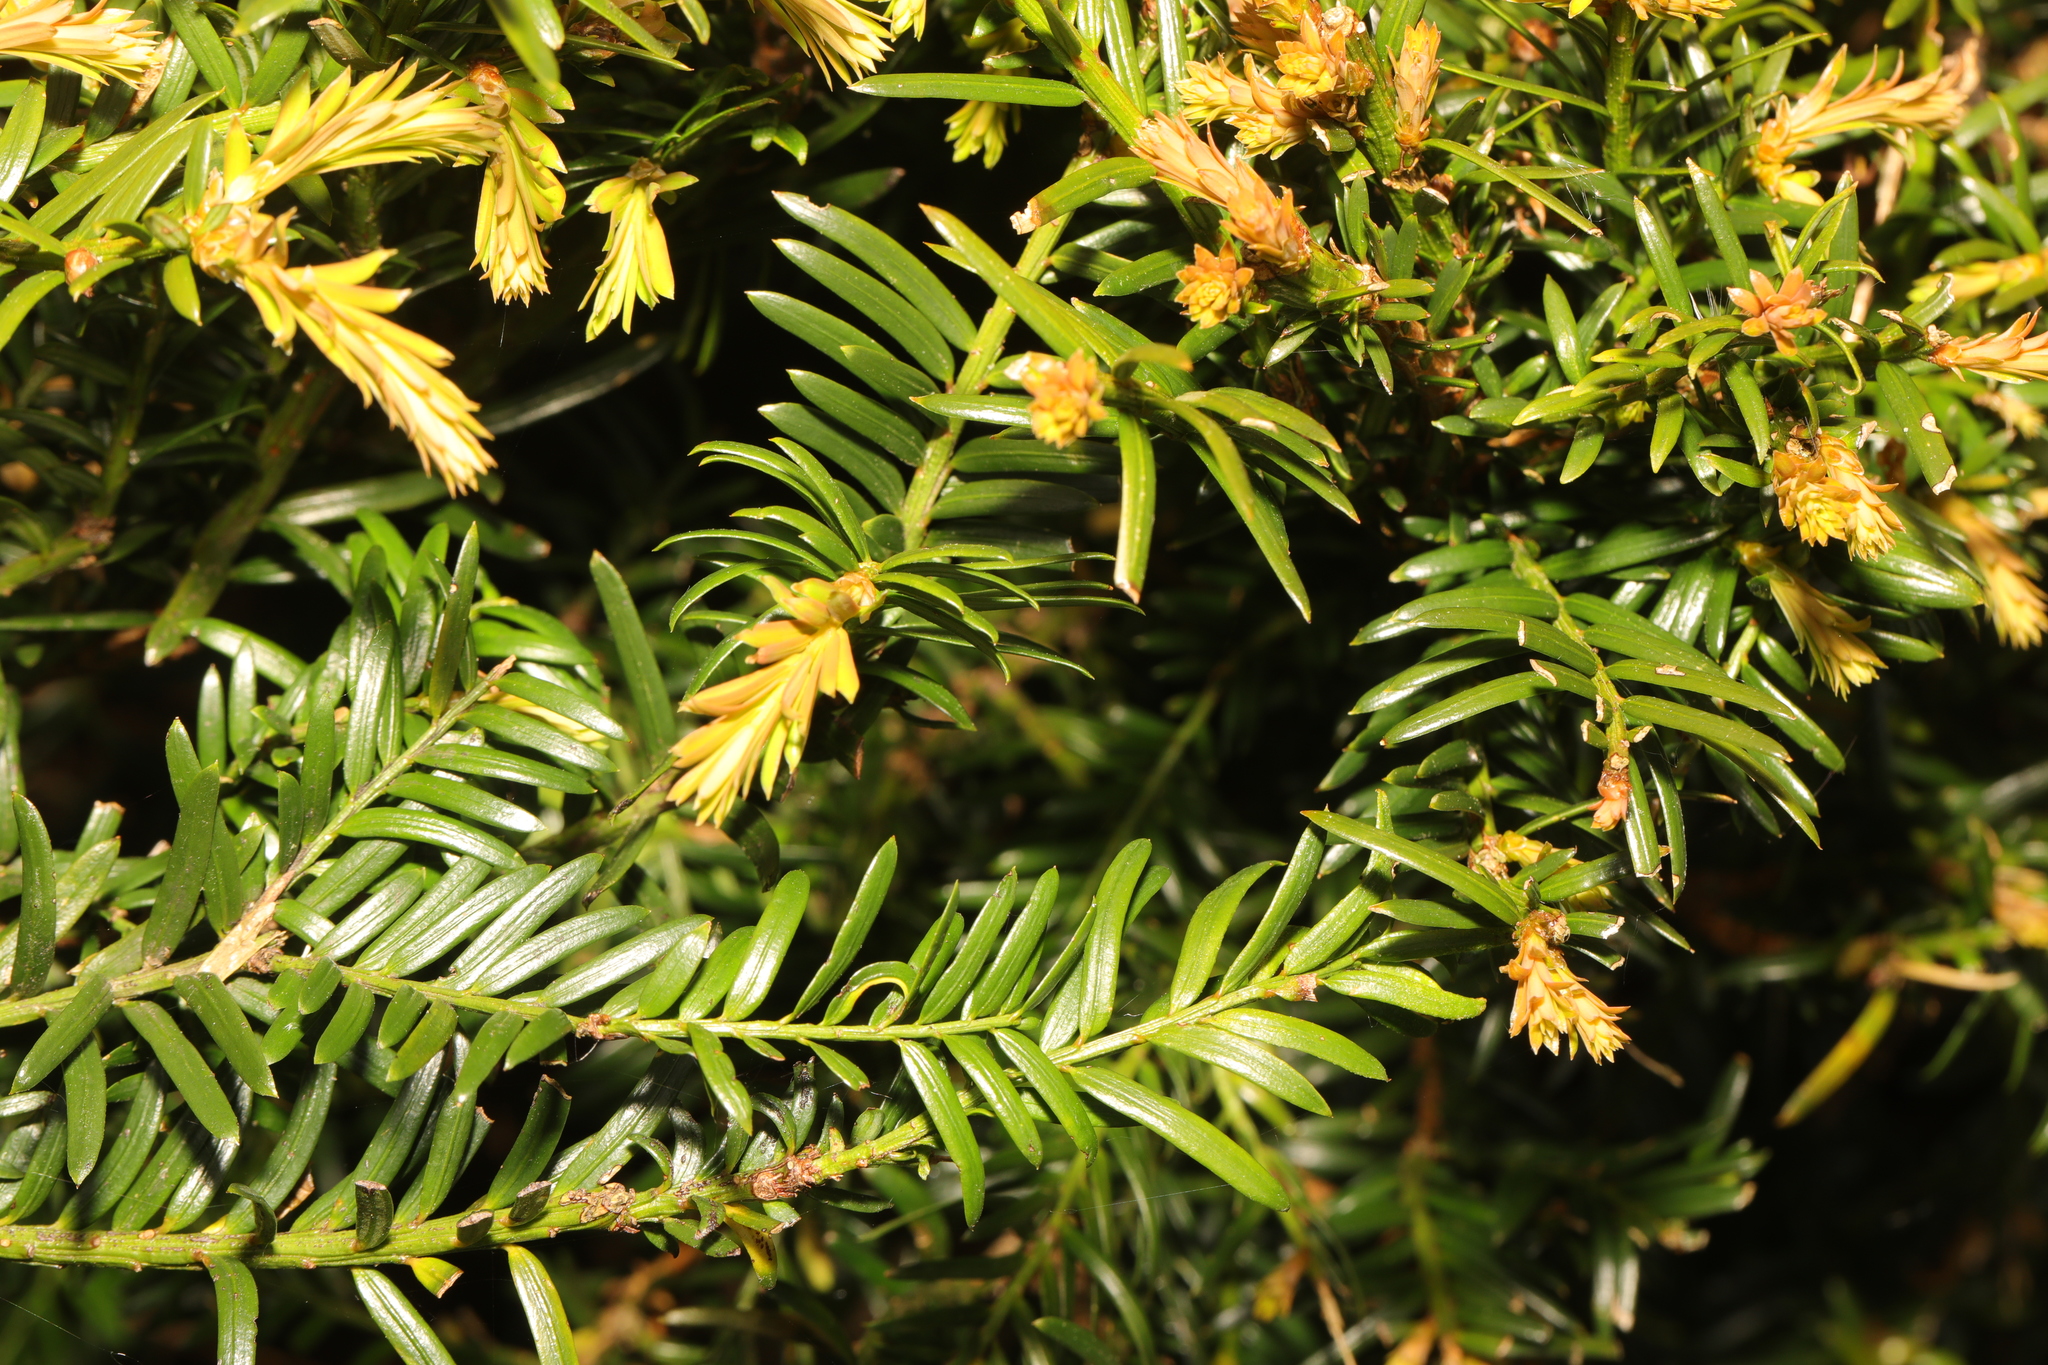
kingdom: Plantae
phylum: Tracheophyta
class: Pinopsida
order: Pinales
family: Taxaceae
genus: Taxus
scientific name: Taxus baccata
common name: Yew
